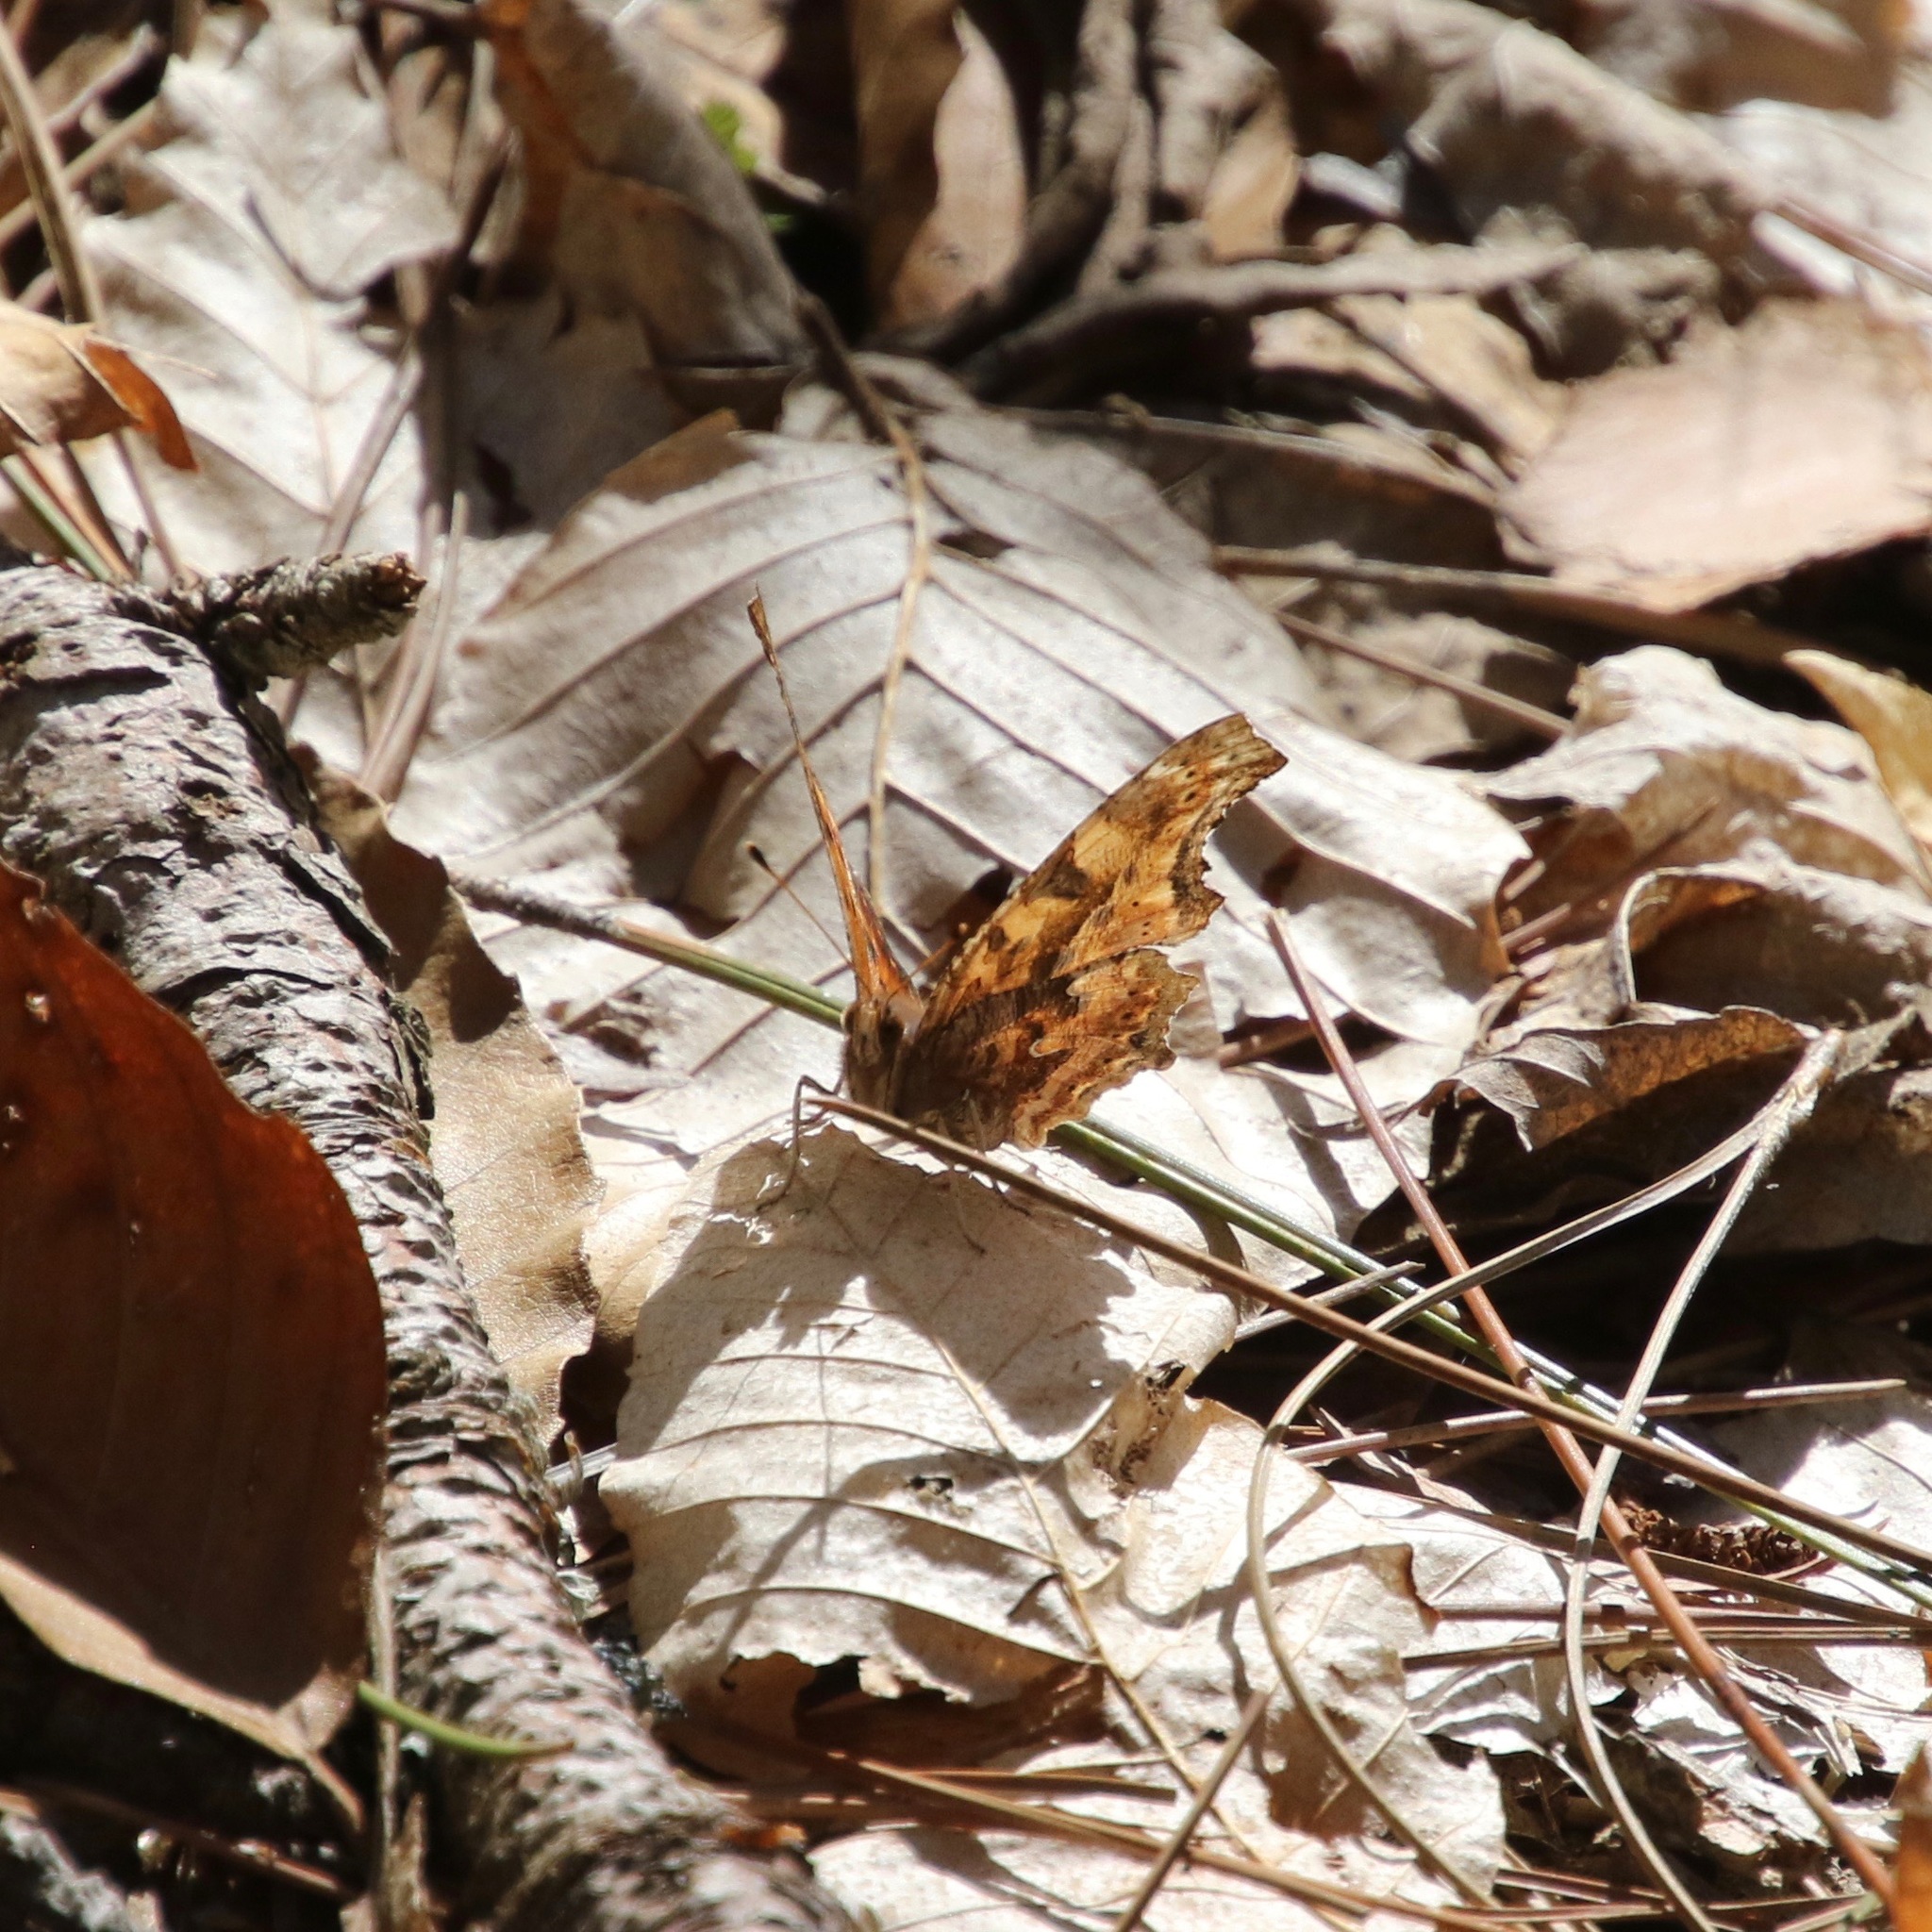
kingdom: Animalia
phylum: Arthropoda
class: Insecta
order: Lepidoptera
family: Nymphalidae
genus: Polygonia
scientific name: Polygonia comma
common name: Eastern comma
